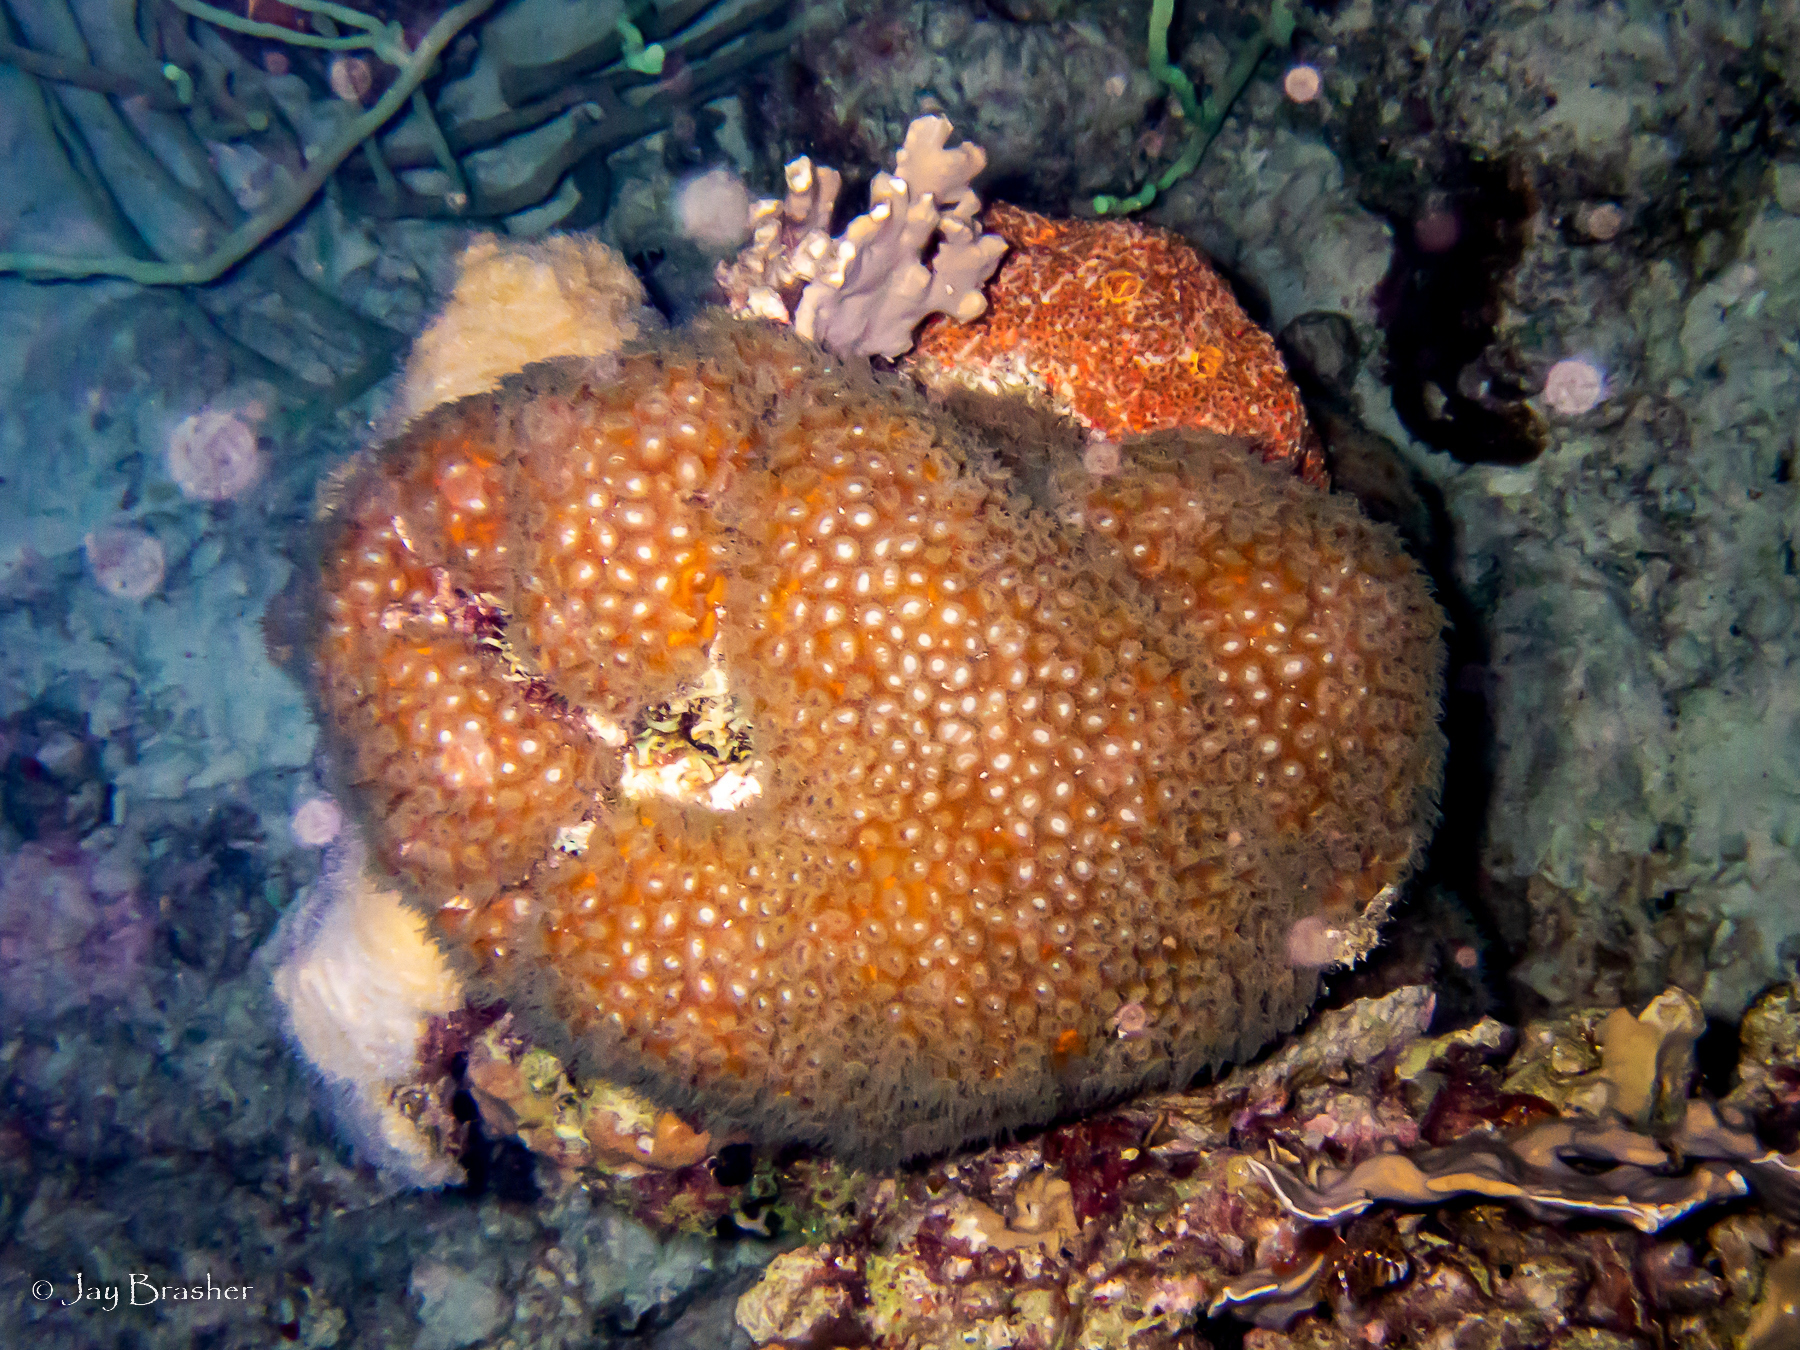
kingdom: Animalia
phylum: Cnidaria
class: Anthozoa
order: Scleractinia
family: Montastraeidae
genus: Montastraea
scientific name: Montastraea cavernosa
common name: Great star coral
